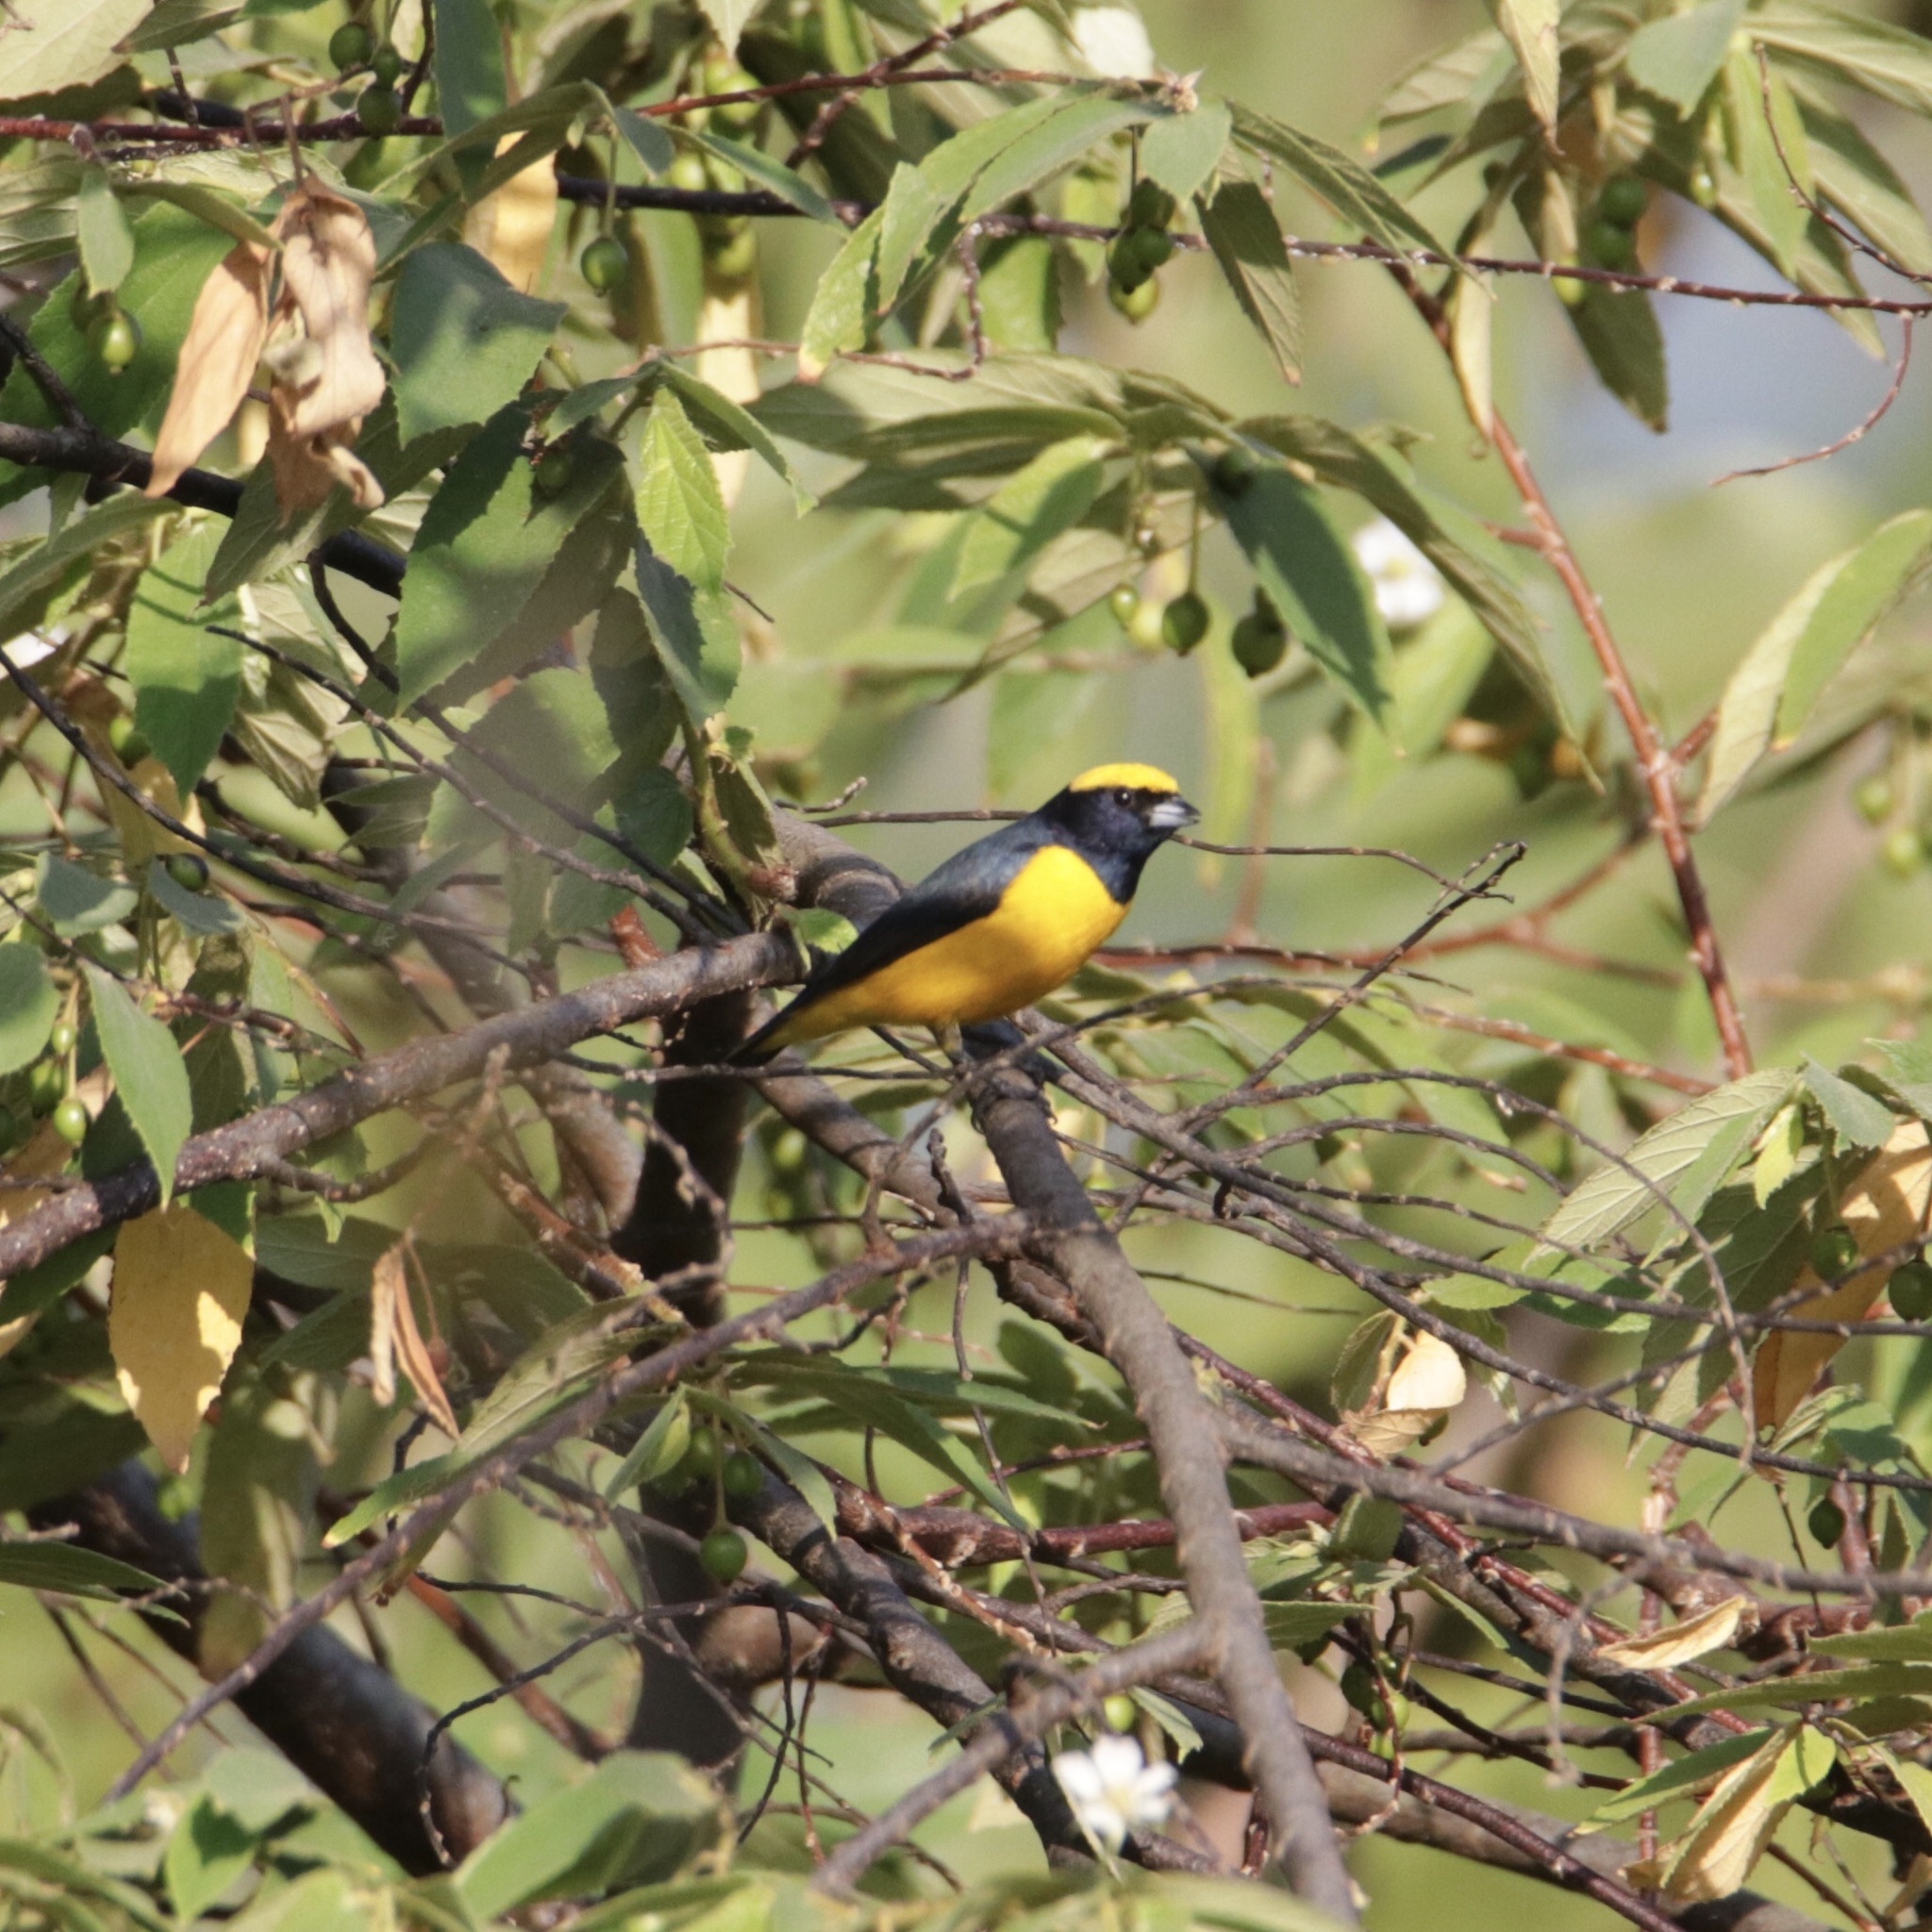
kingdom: Animalia
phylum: Chordata
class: Aves
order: Passeriformes
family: Fringillidae
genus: Euphonia
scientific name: Euphonia luteicapilla
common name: Yellow-crowned euphonia
